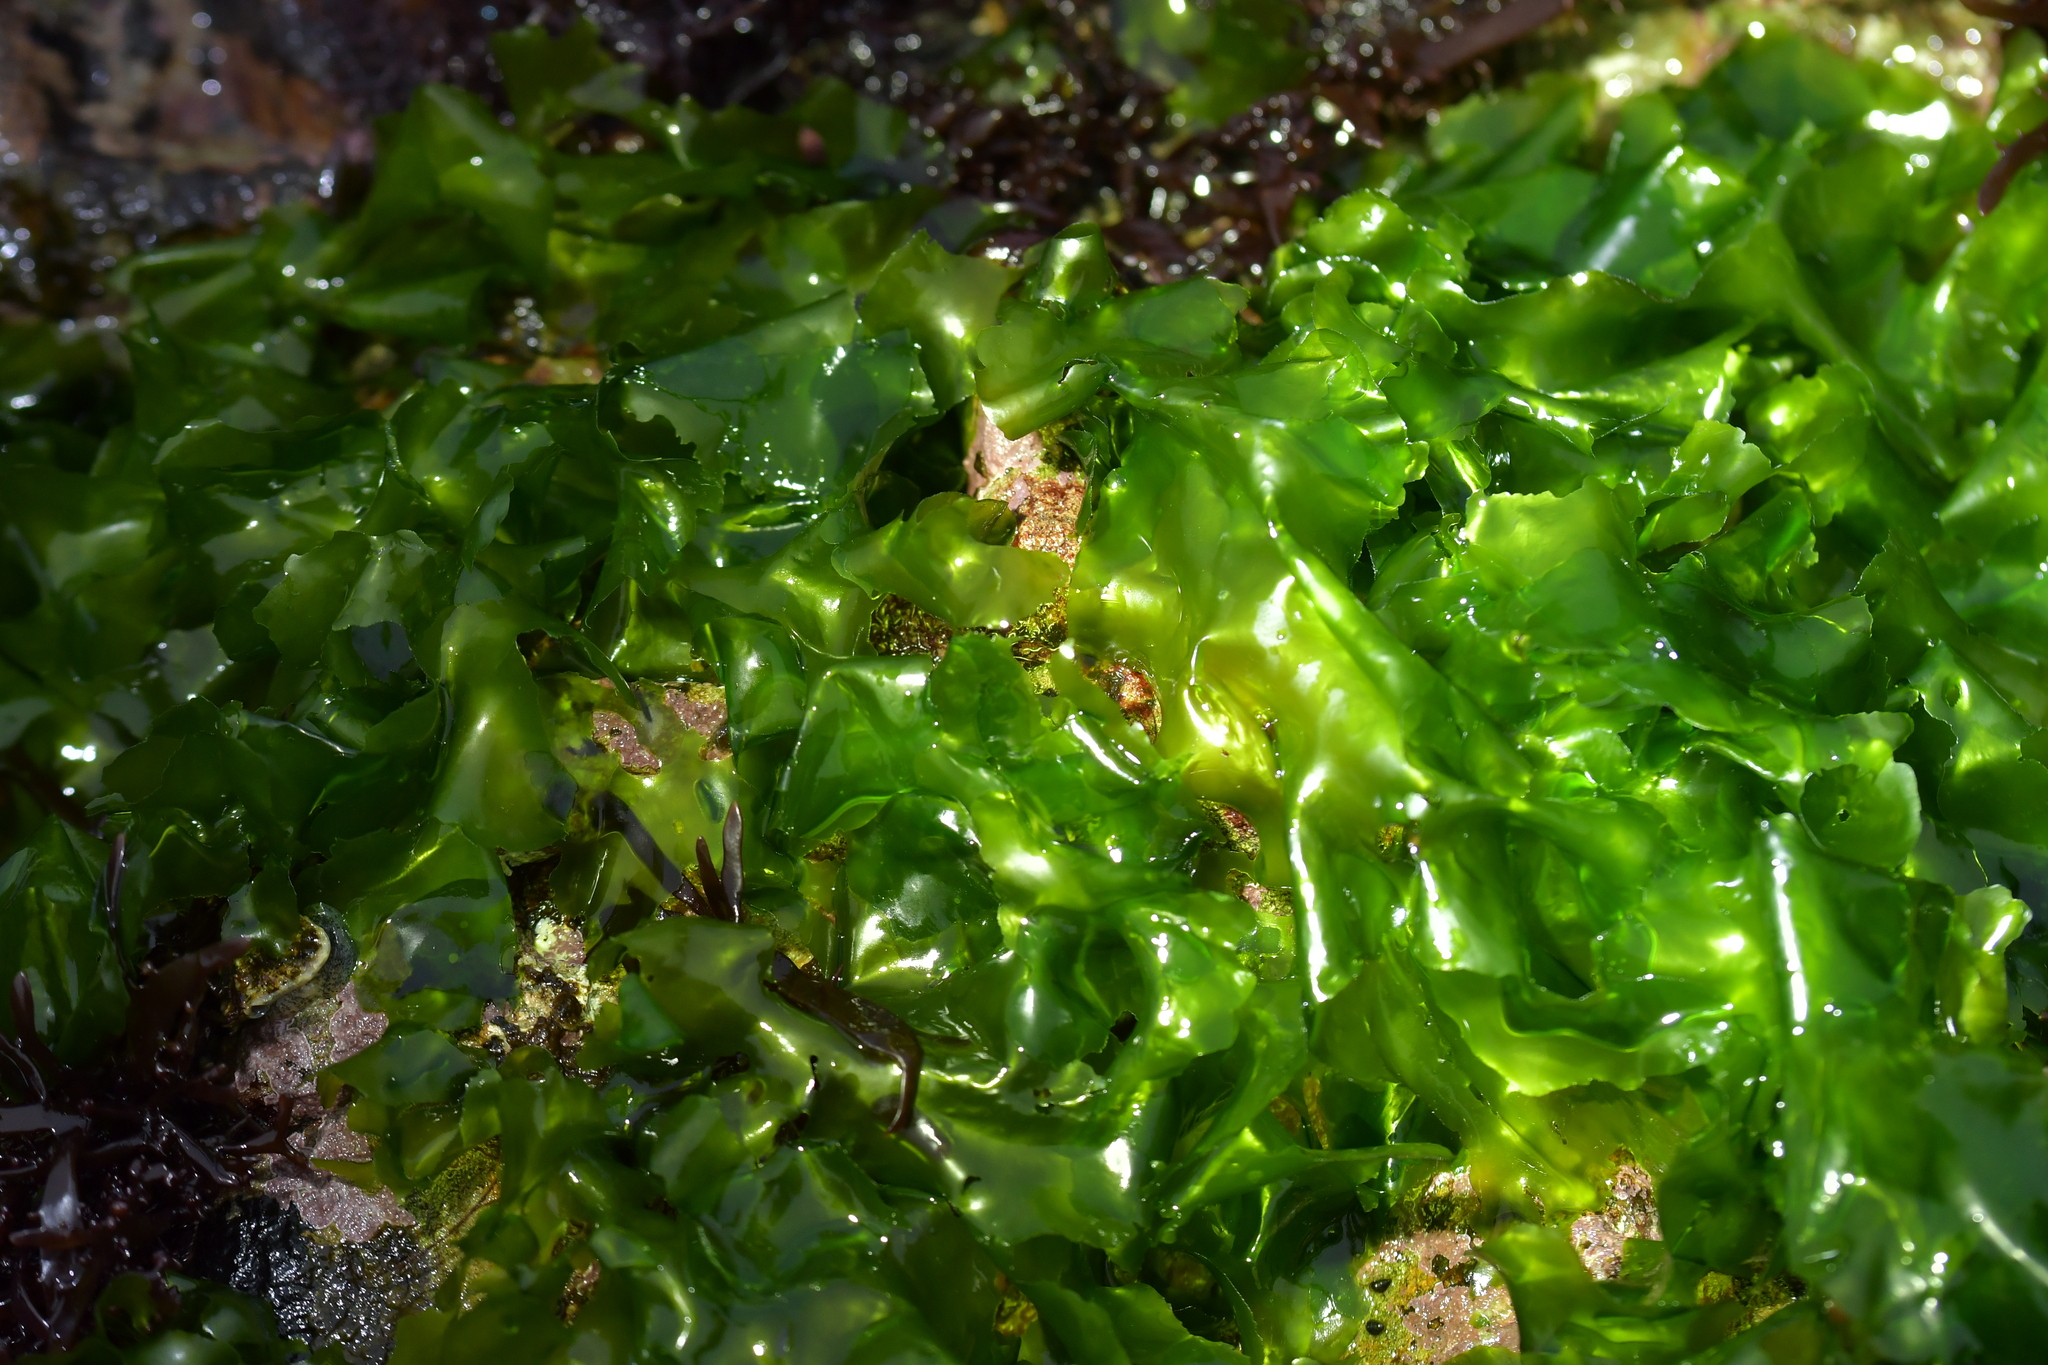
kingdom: Plantae
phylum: Chlorophyta
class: Ulvophyceae
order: Ulvales
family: Ulvaceae
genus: Ulva
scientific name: Ulva
